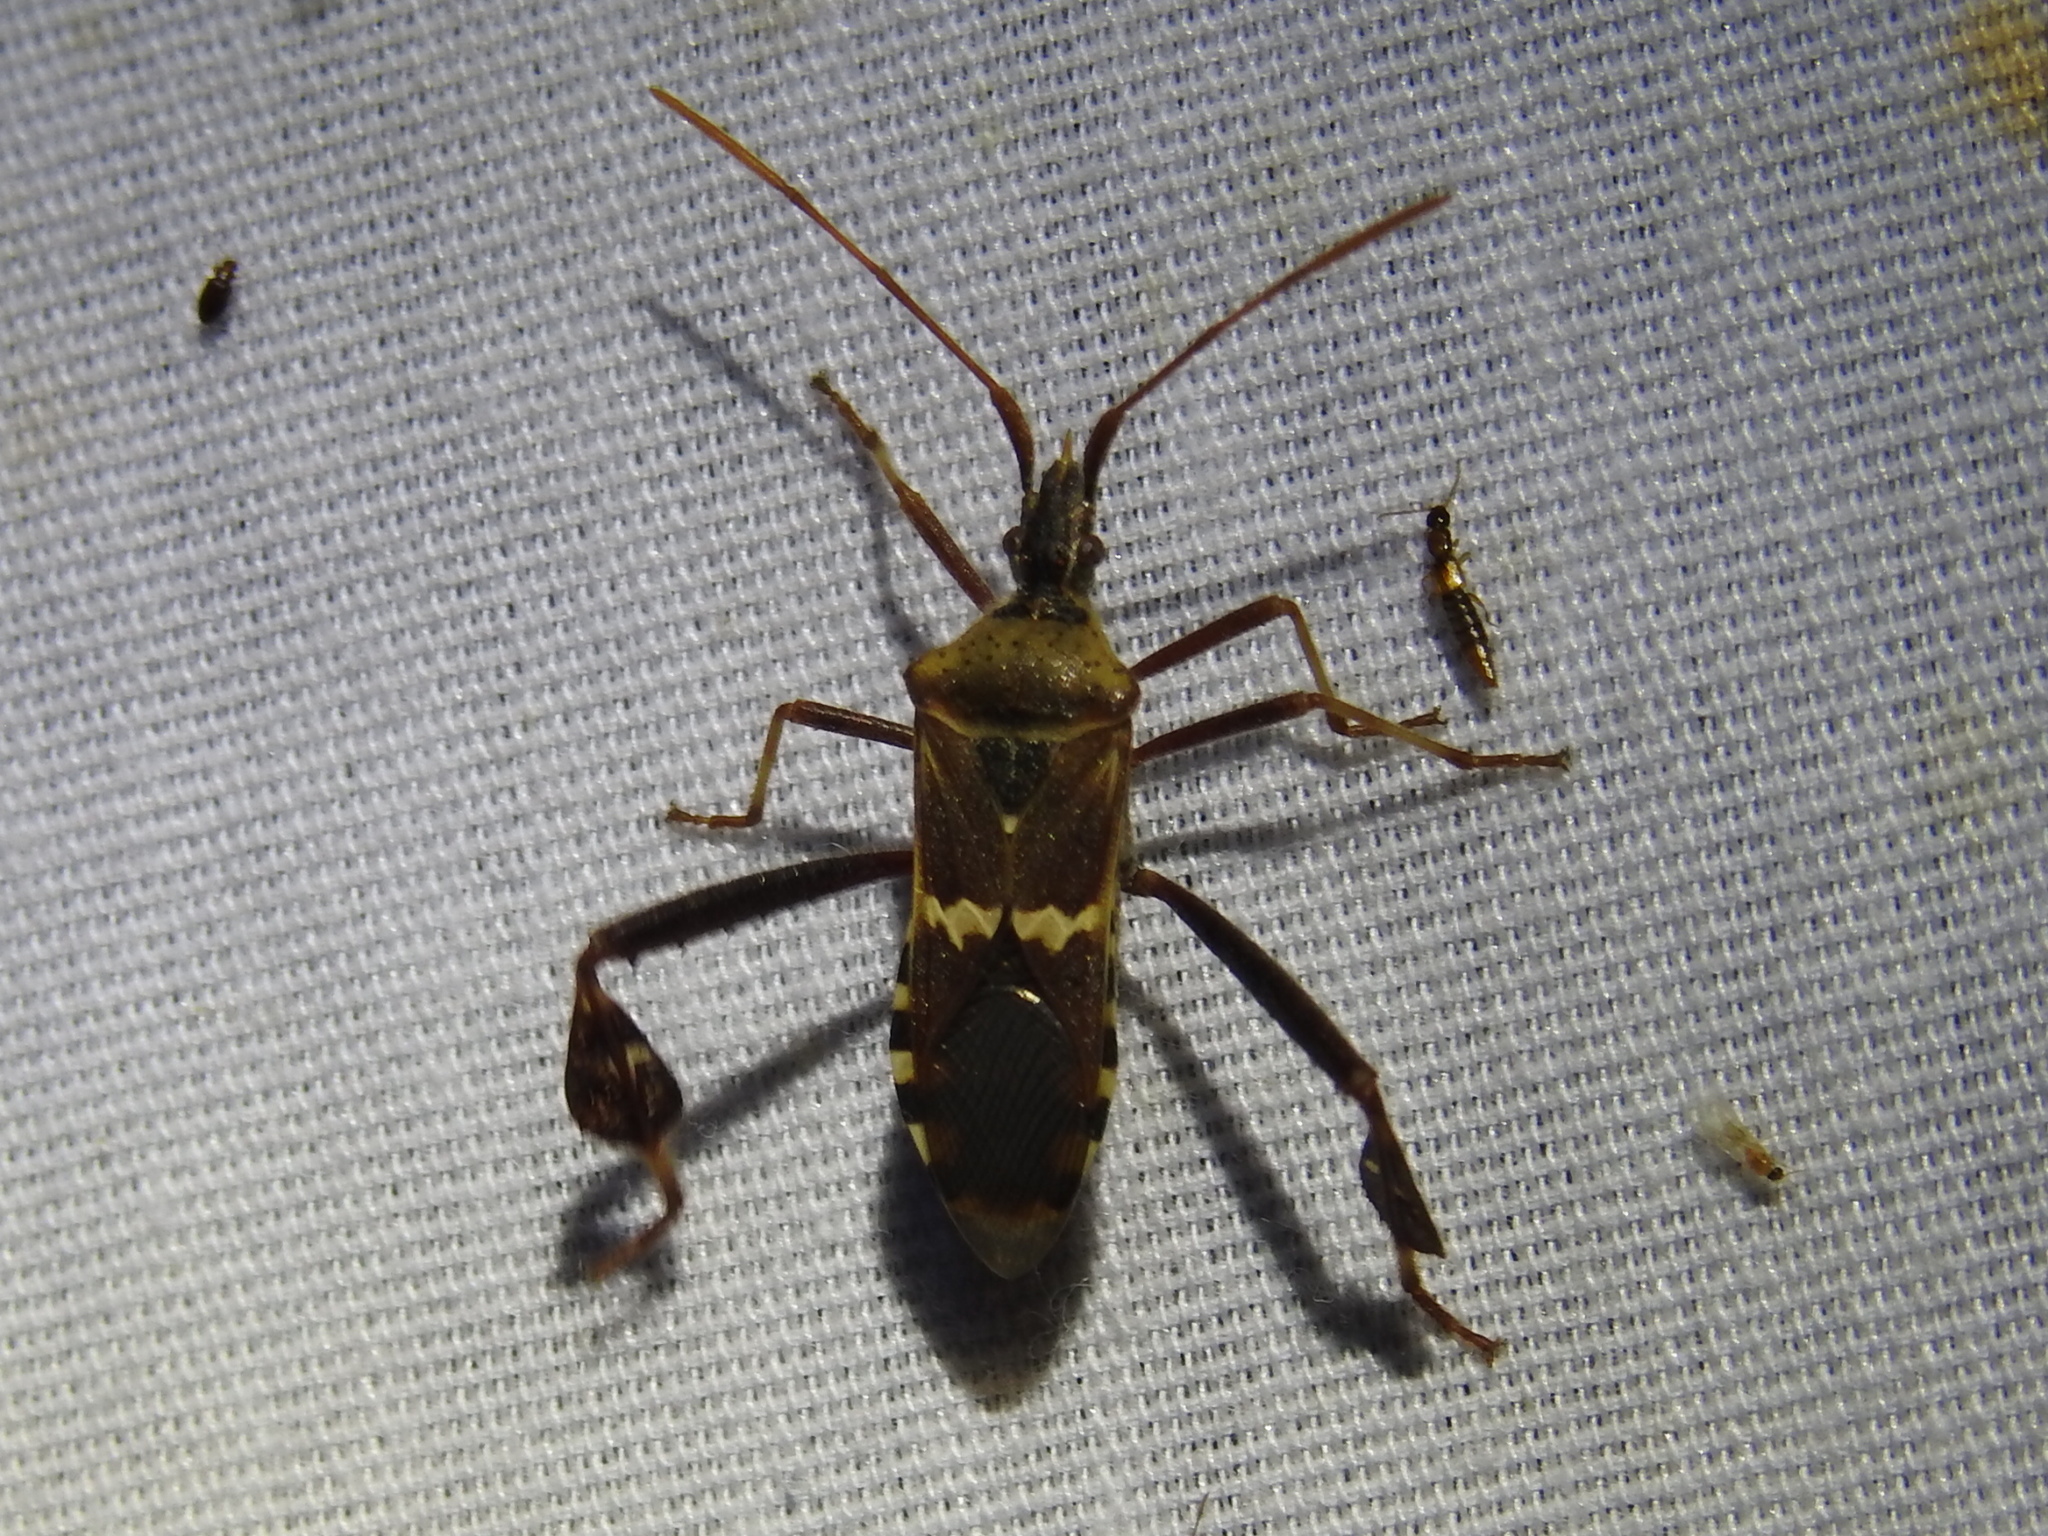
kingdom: Animalia
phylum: Arthropoda
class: Insecta
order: Hemiptera
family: Coreidae
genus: Leptoglossus
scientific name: Leptoglossus clypealis
